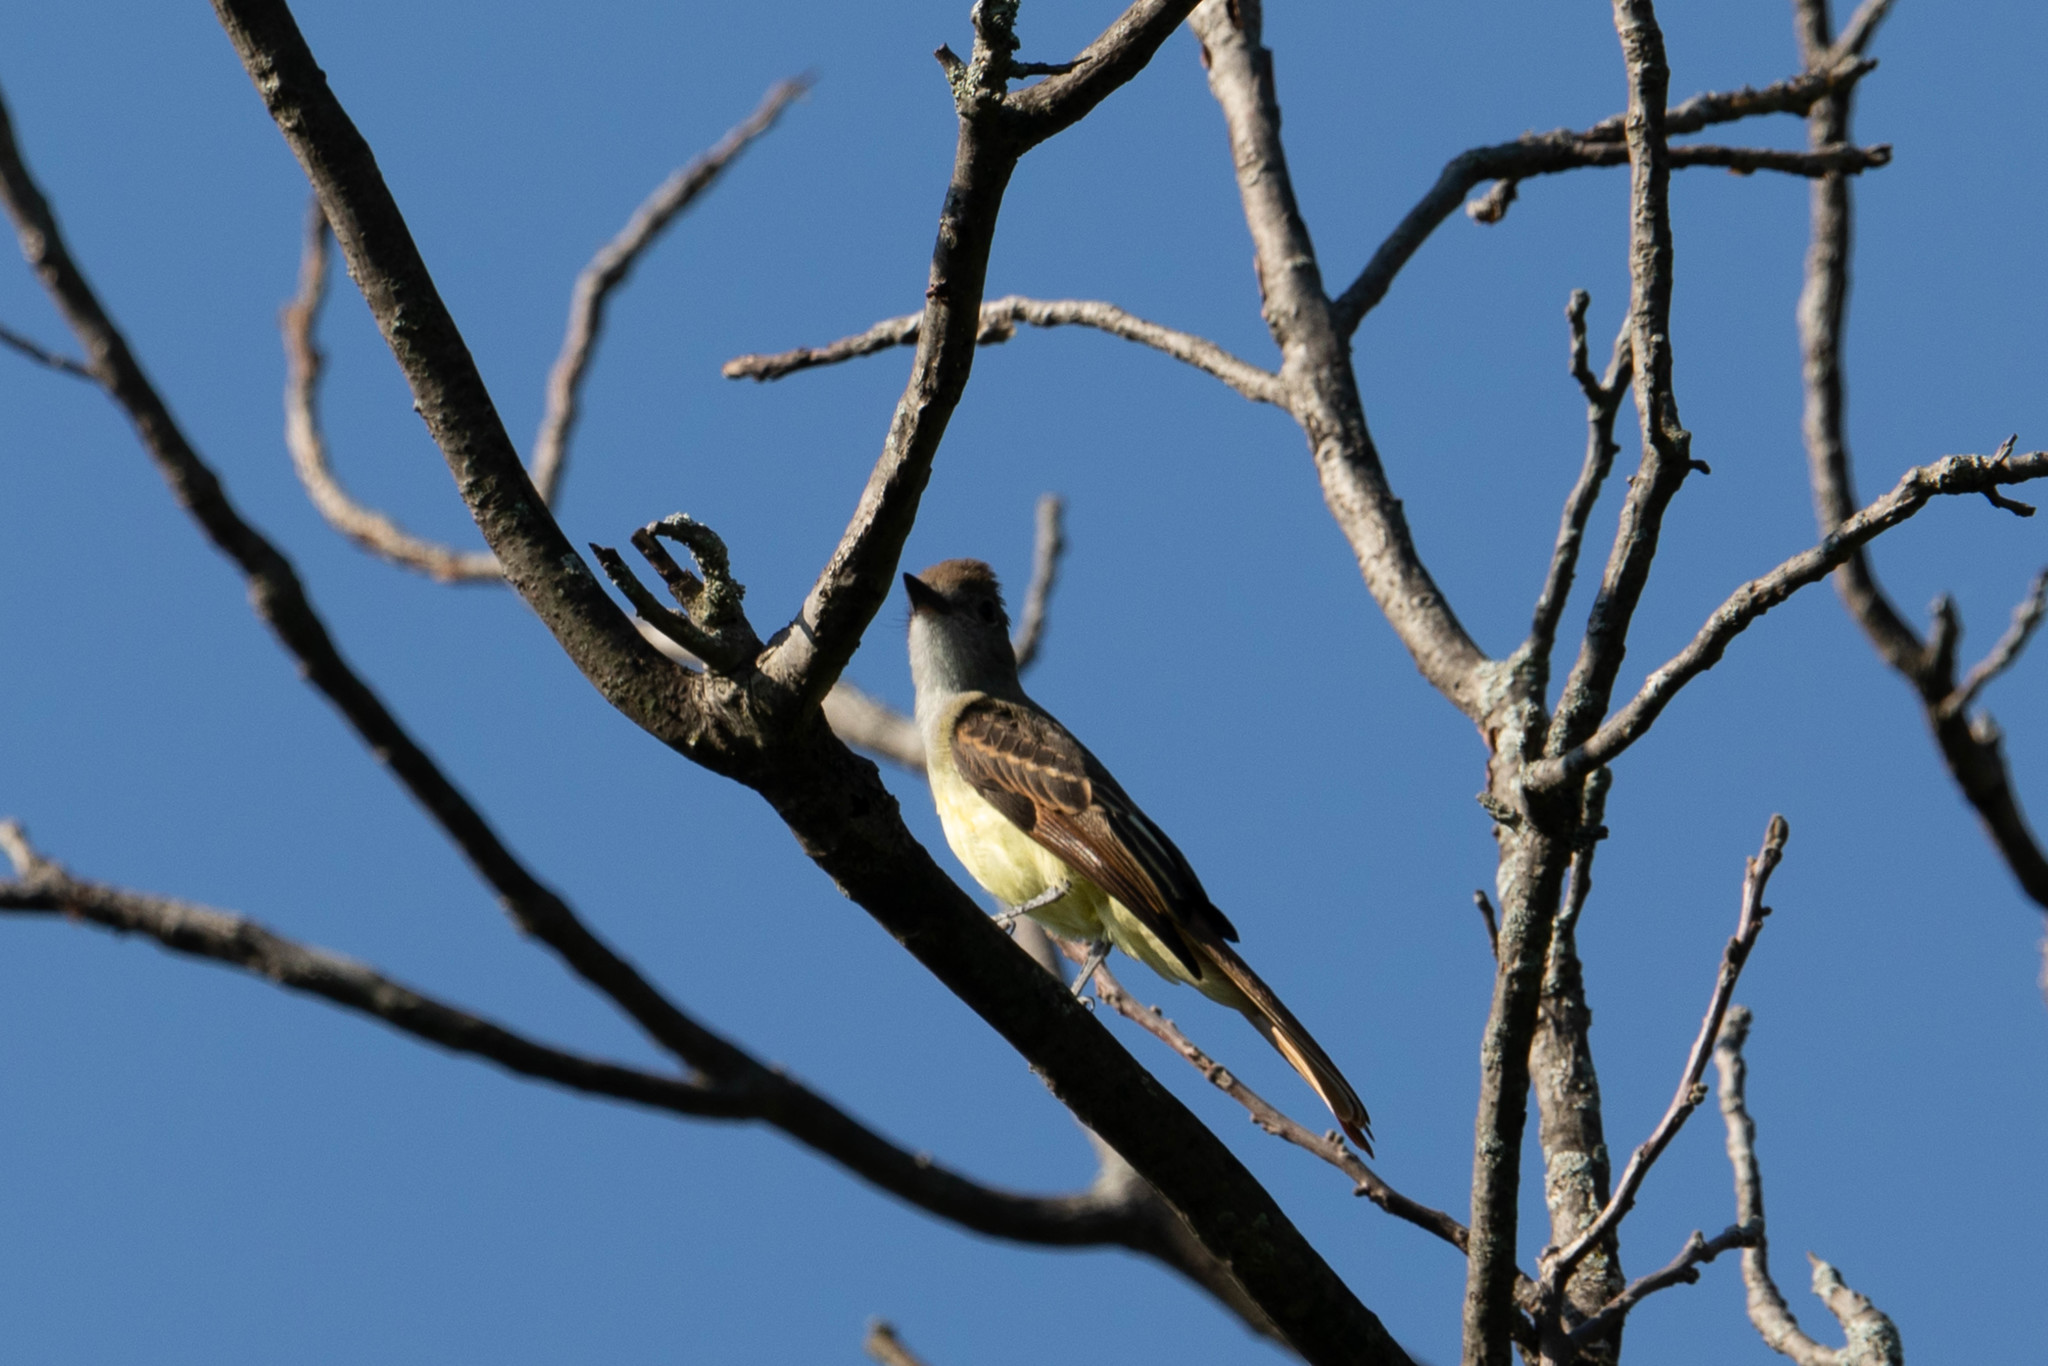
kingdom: Animalia
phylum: Chordata
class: Aves
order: Passeriformes
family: Tyrannidae
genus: Myiarchus
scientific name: Myiarchus crinitus
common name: Great crested flycatcher
